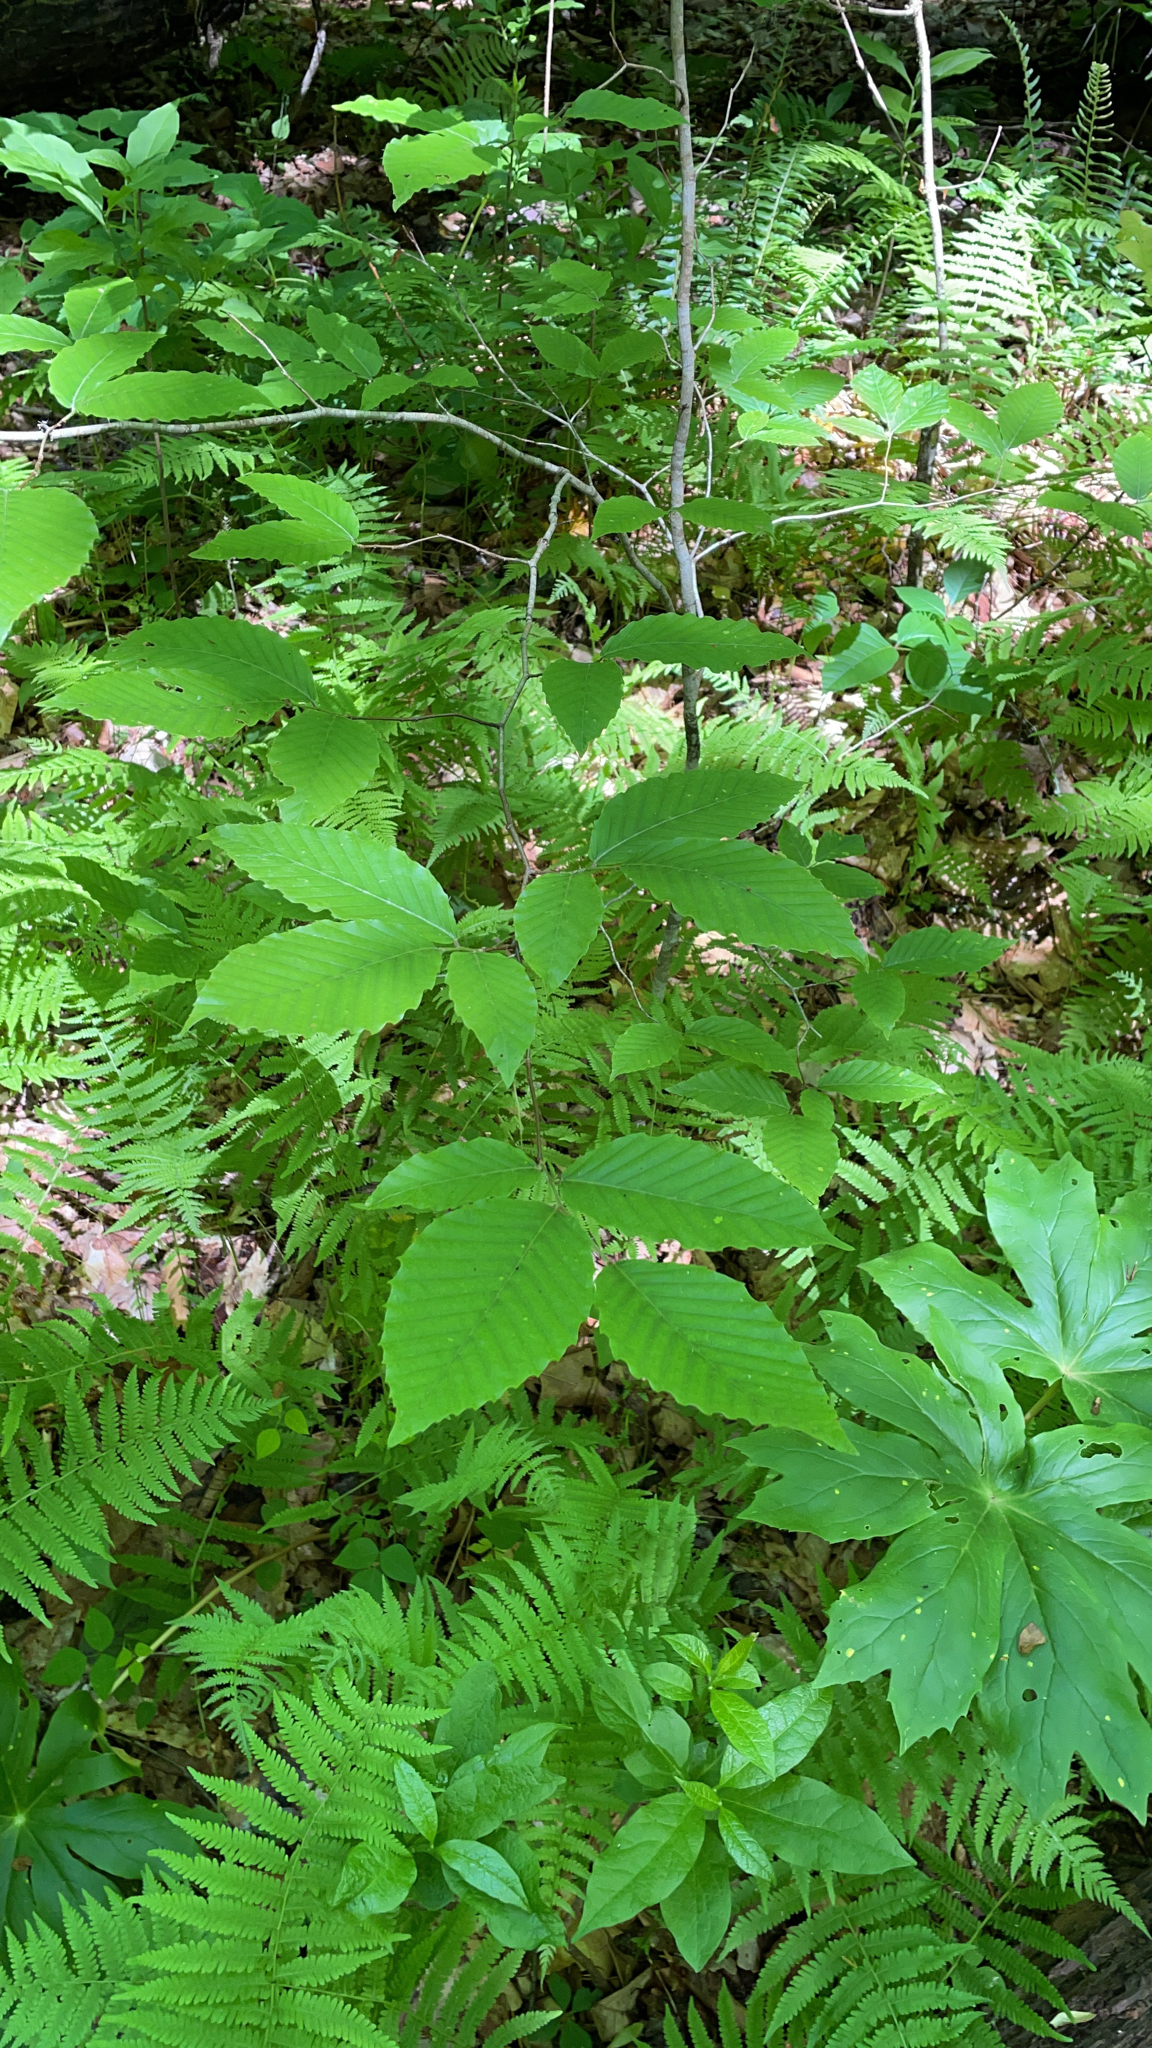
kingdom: Plantae
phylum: Tracheophyta
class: Magnoliopsida
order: Fagales
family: Fagaceae
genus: Fagus
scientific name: Fagus grandifolia
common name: American beech
